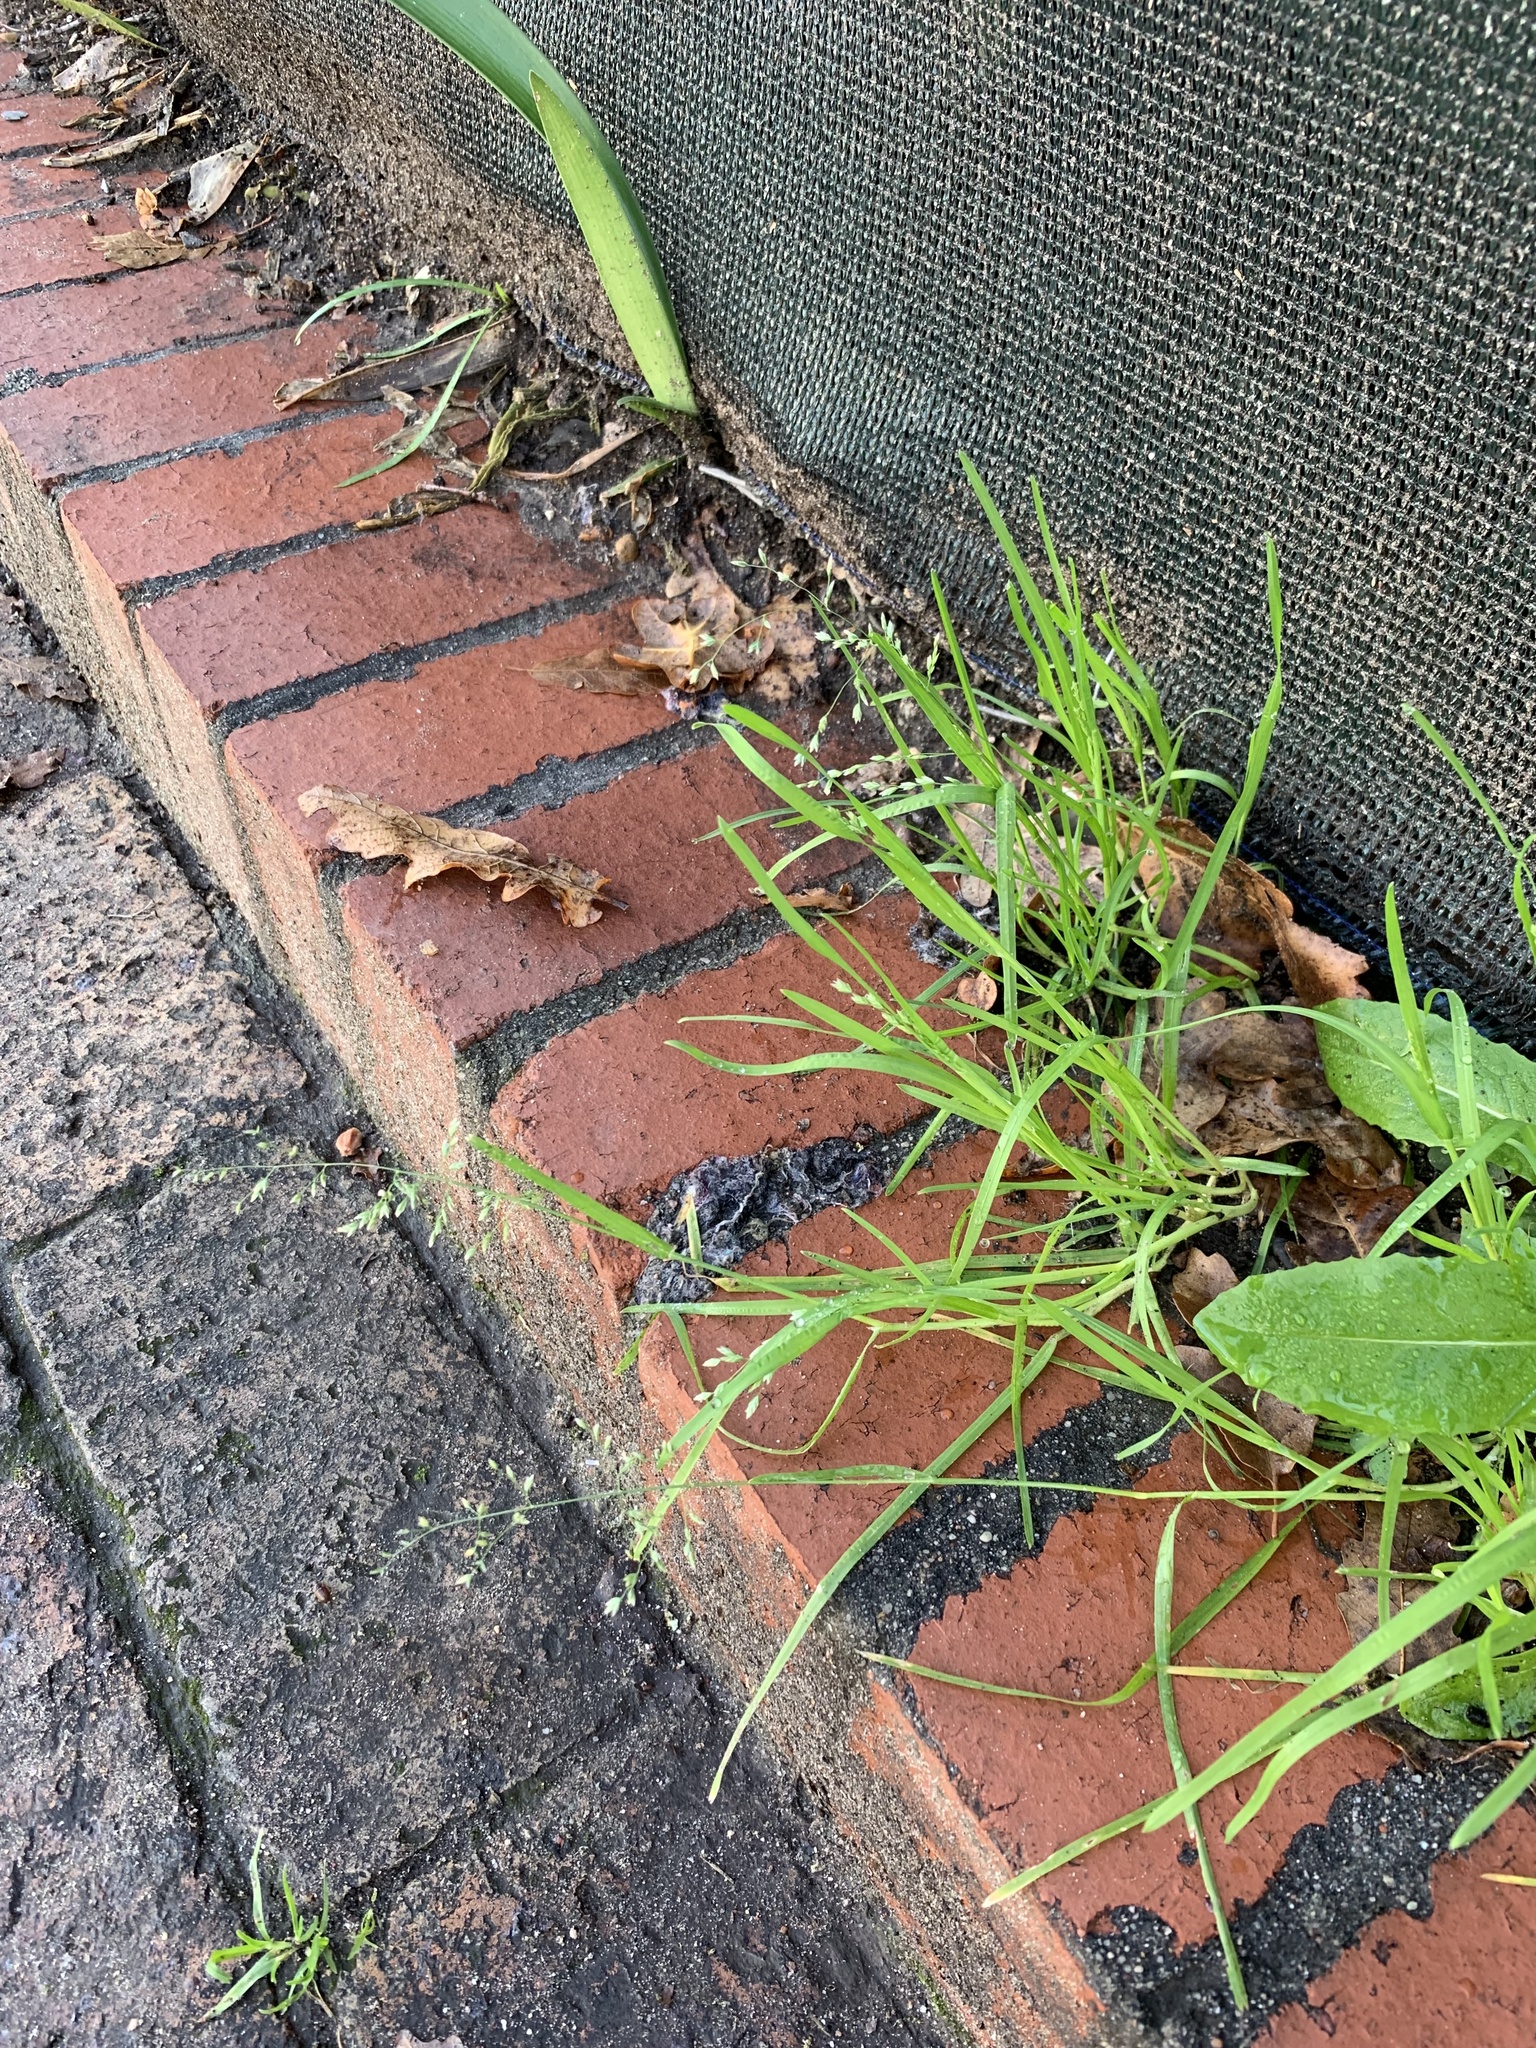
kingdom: Plantae
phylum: Tracheophyta
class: Liliopsida
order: Poales
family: Poaceae
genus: Poa
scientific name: Poa annua
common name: Annual bluegrass
